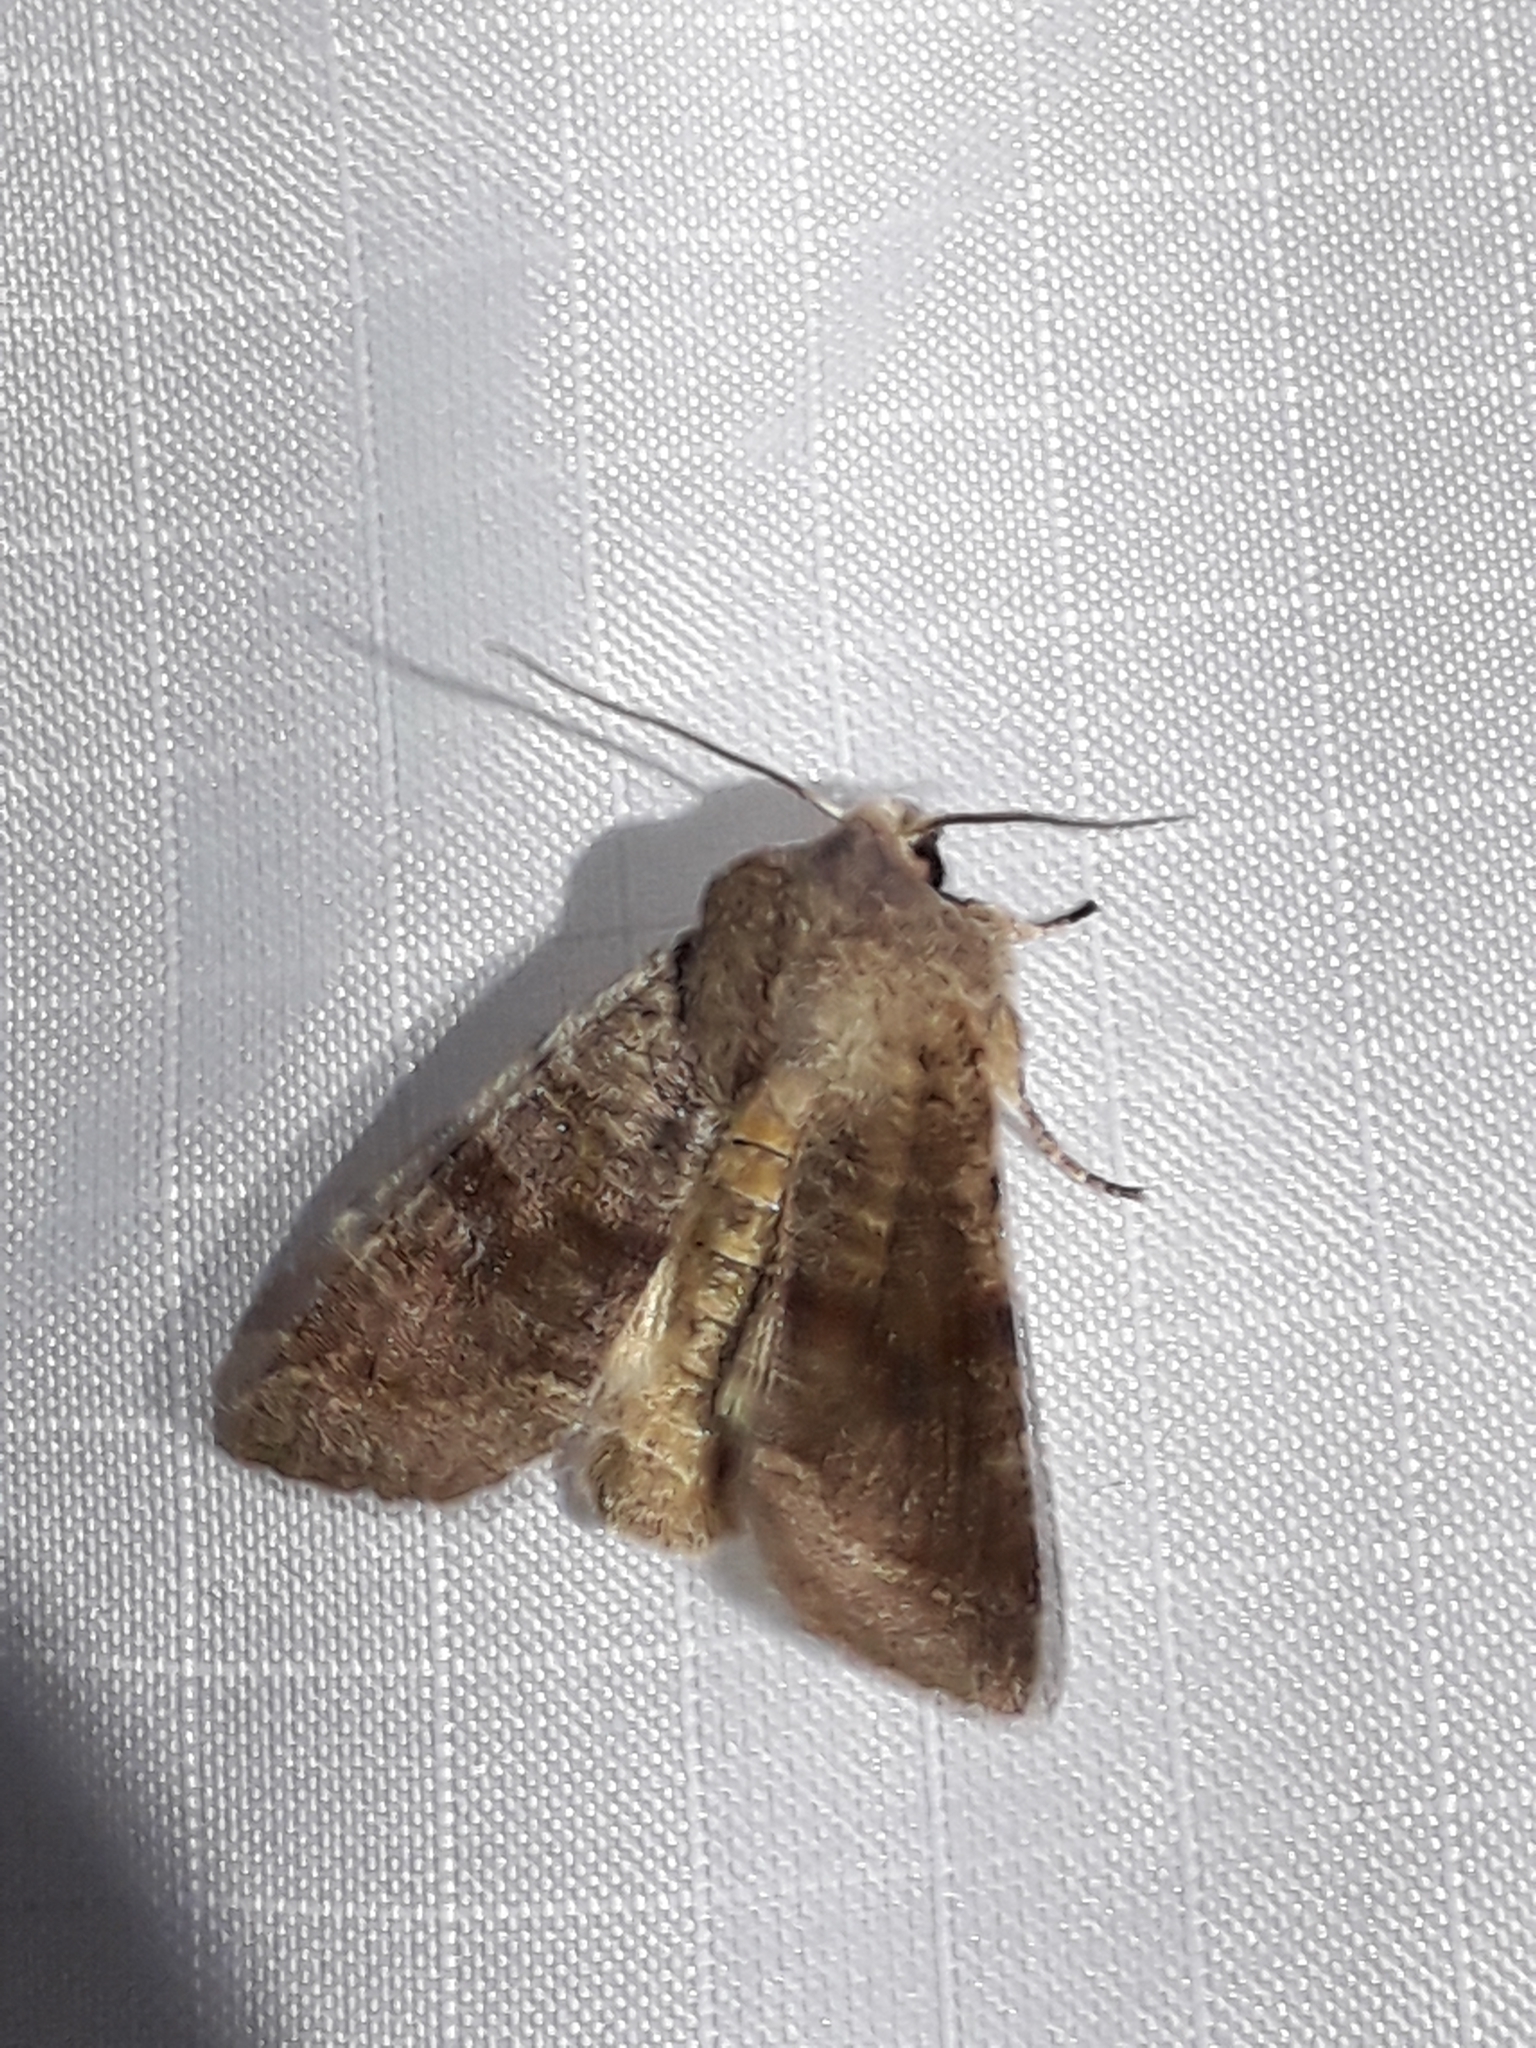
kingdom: Animalia
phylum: Arthropoda
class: Insecta
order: Lepidoptera
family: Noctuidae
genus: Orthosia
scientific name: Orthosia incerta
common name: Clouded drab
